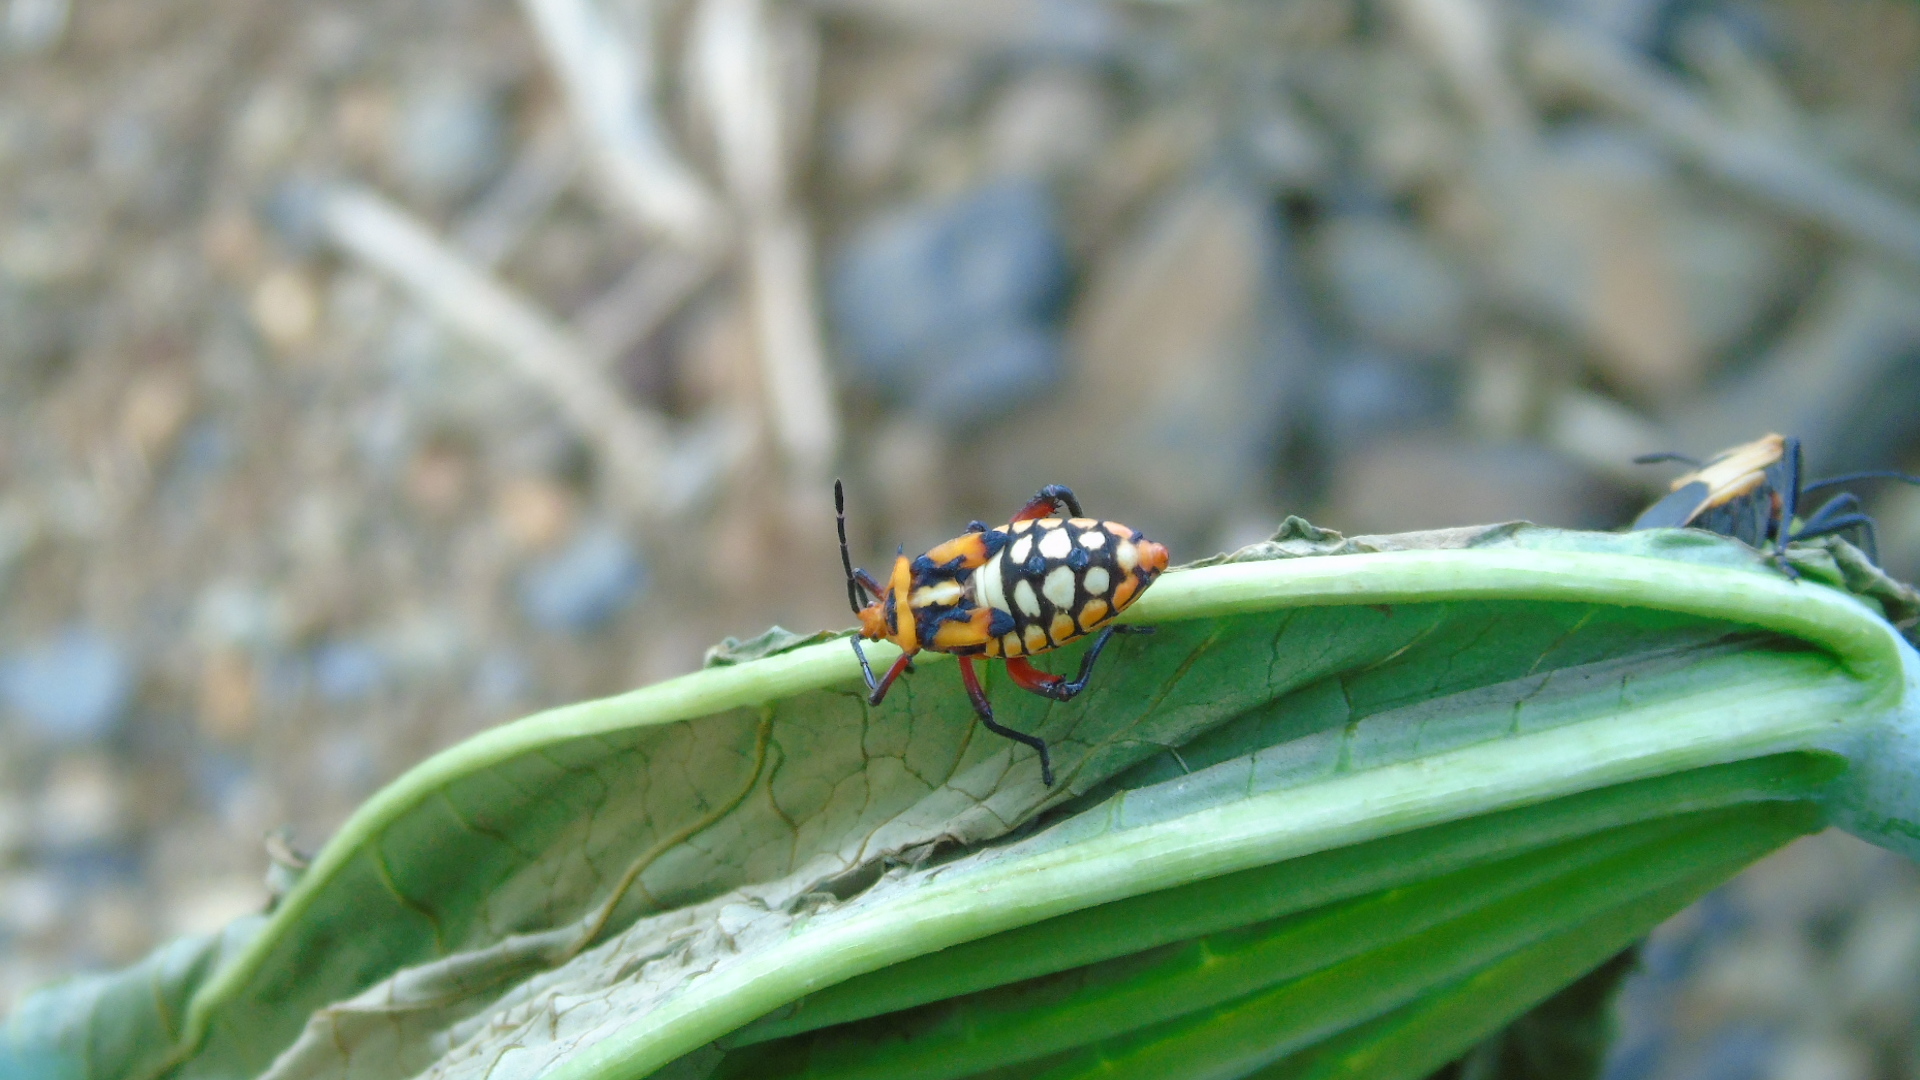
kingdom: Animalia
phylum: Arthropoda
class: Insecta
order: Hemiptera
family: Coreidae
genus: Sagotylus
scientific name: Sagotylus confluens
